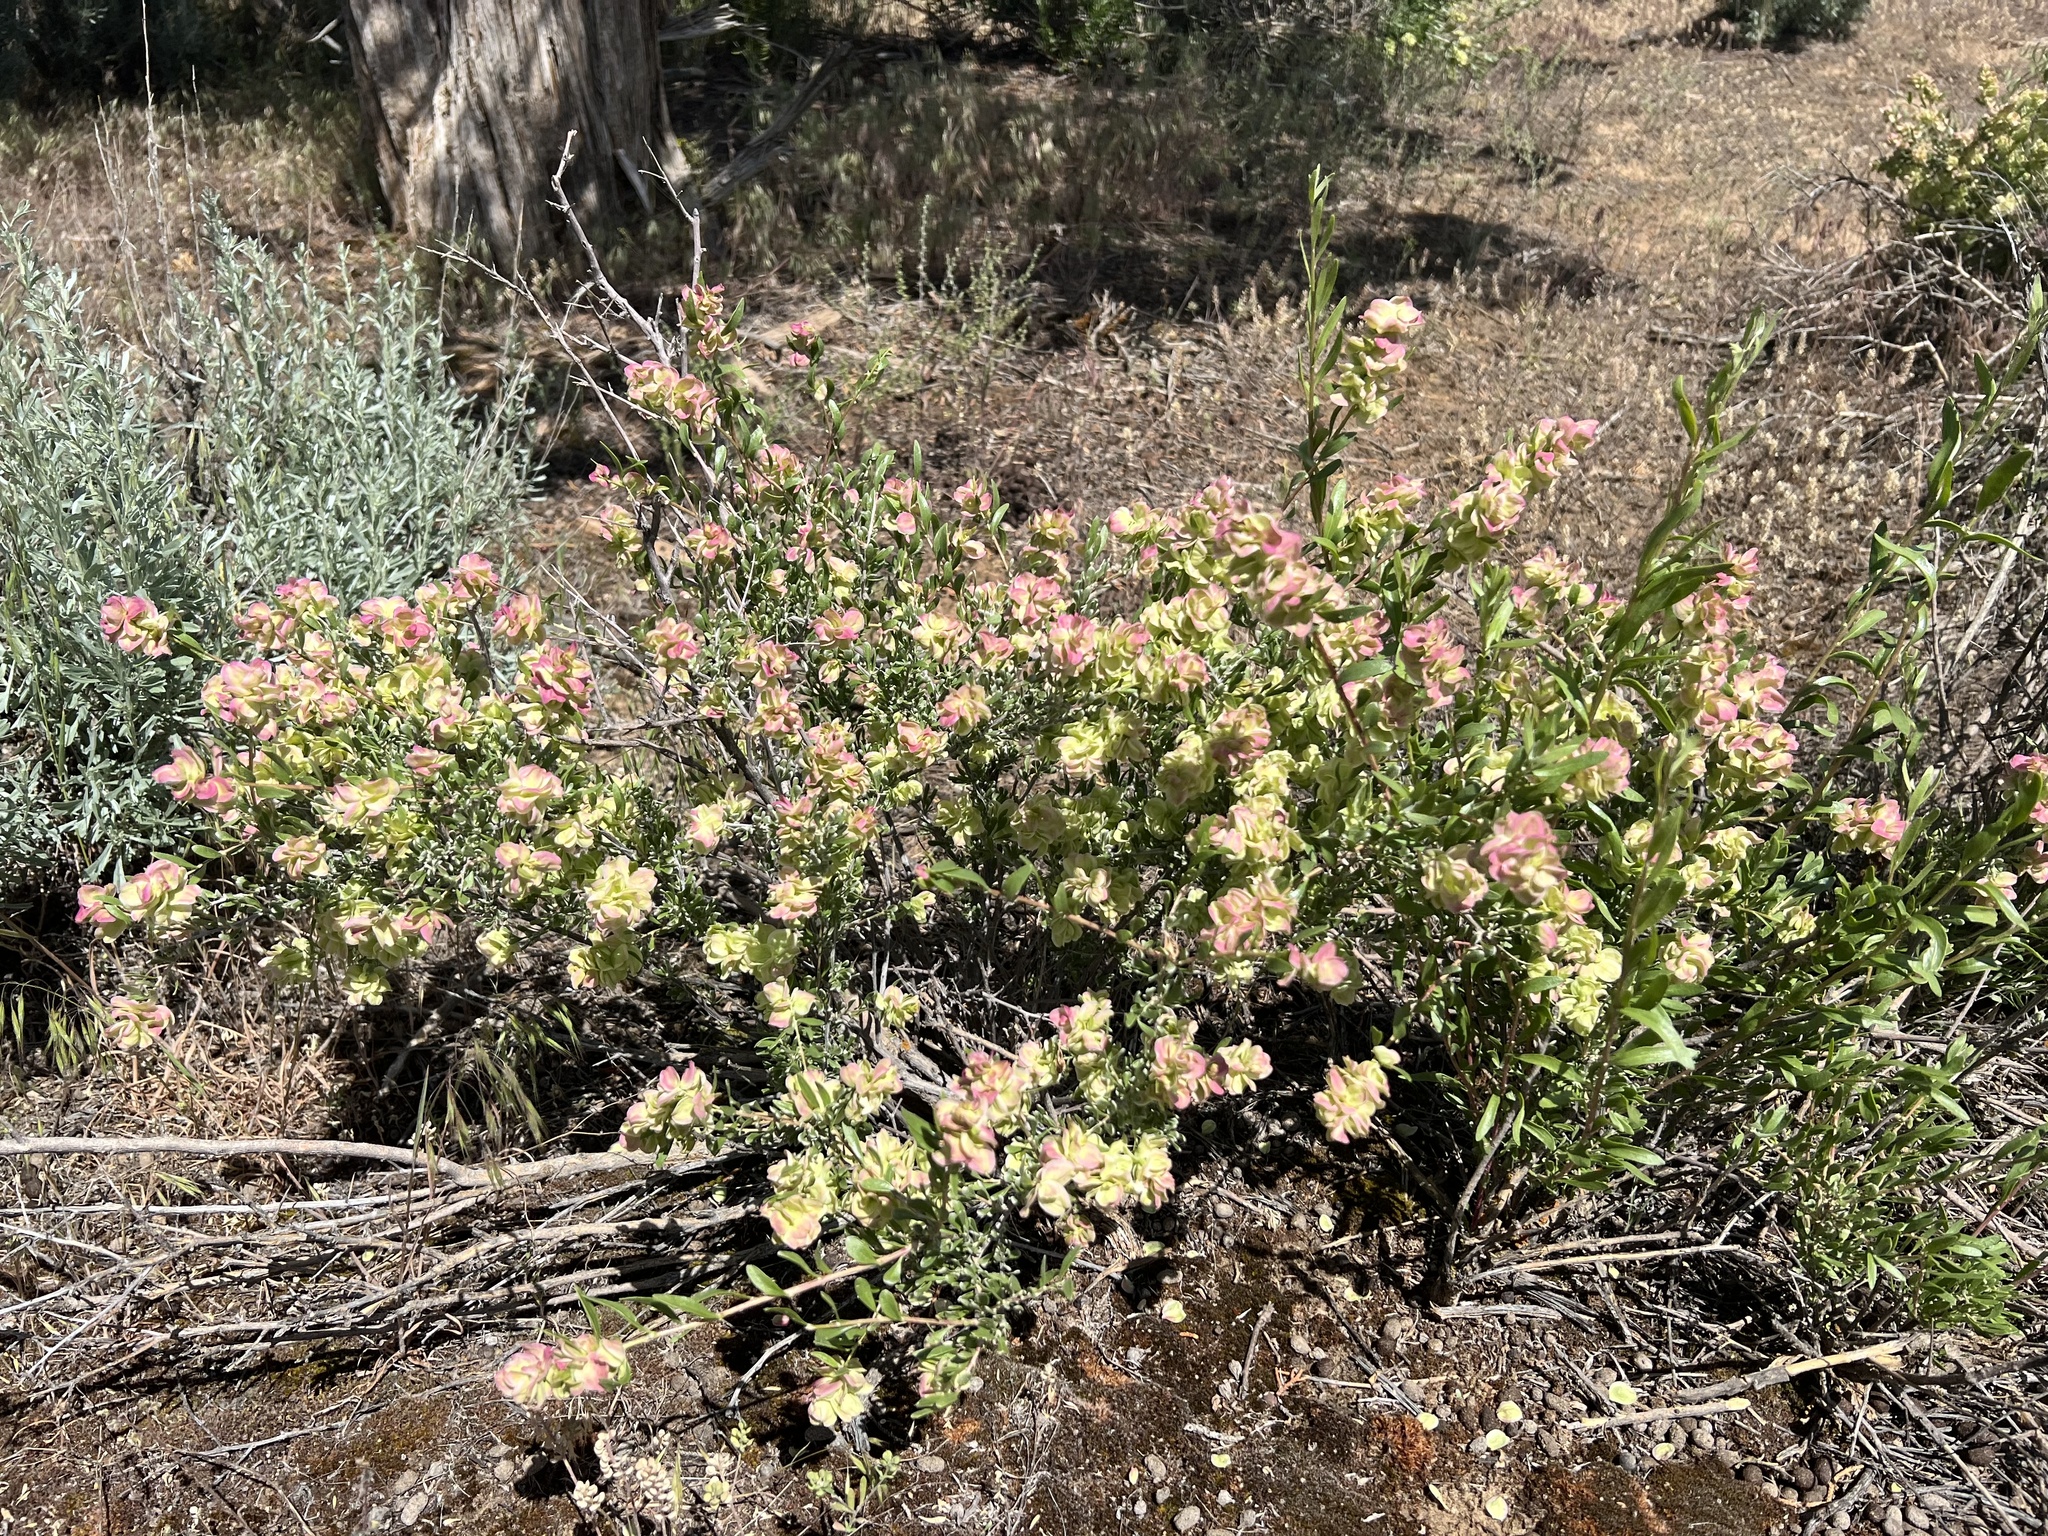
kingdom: Plantae
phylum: Tracheophyta
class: Magnoliopsida
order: Caryophyllales
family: Amaranthaceae
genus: Grayia
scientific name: Grayia spinosa
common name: Spiny hopsage
